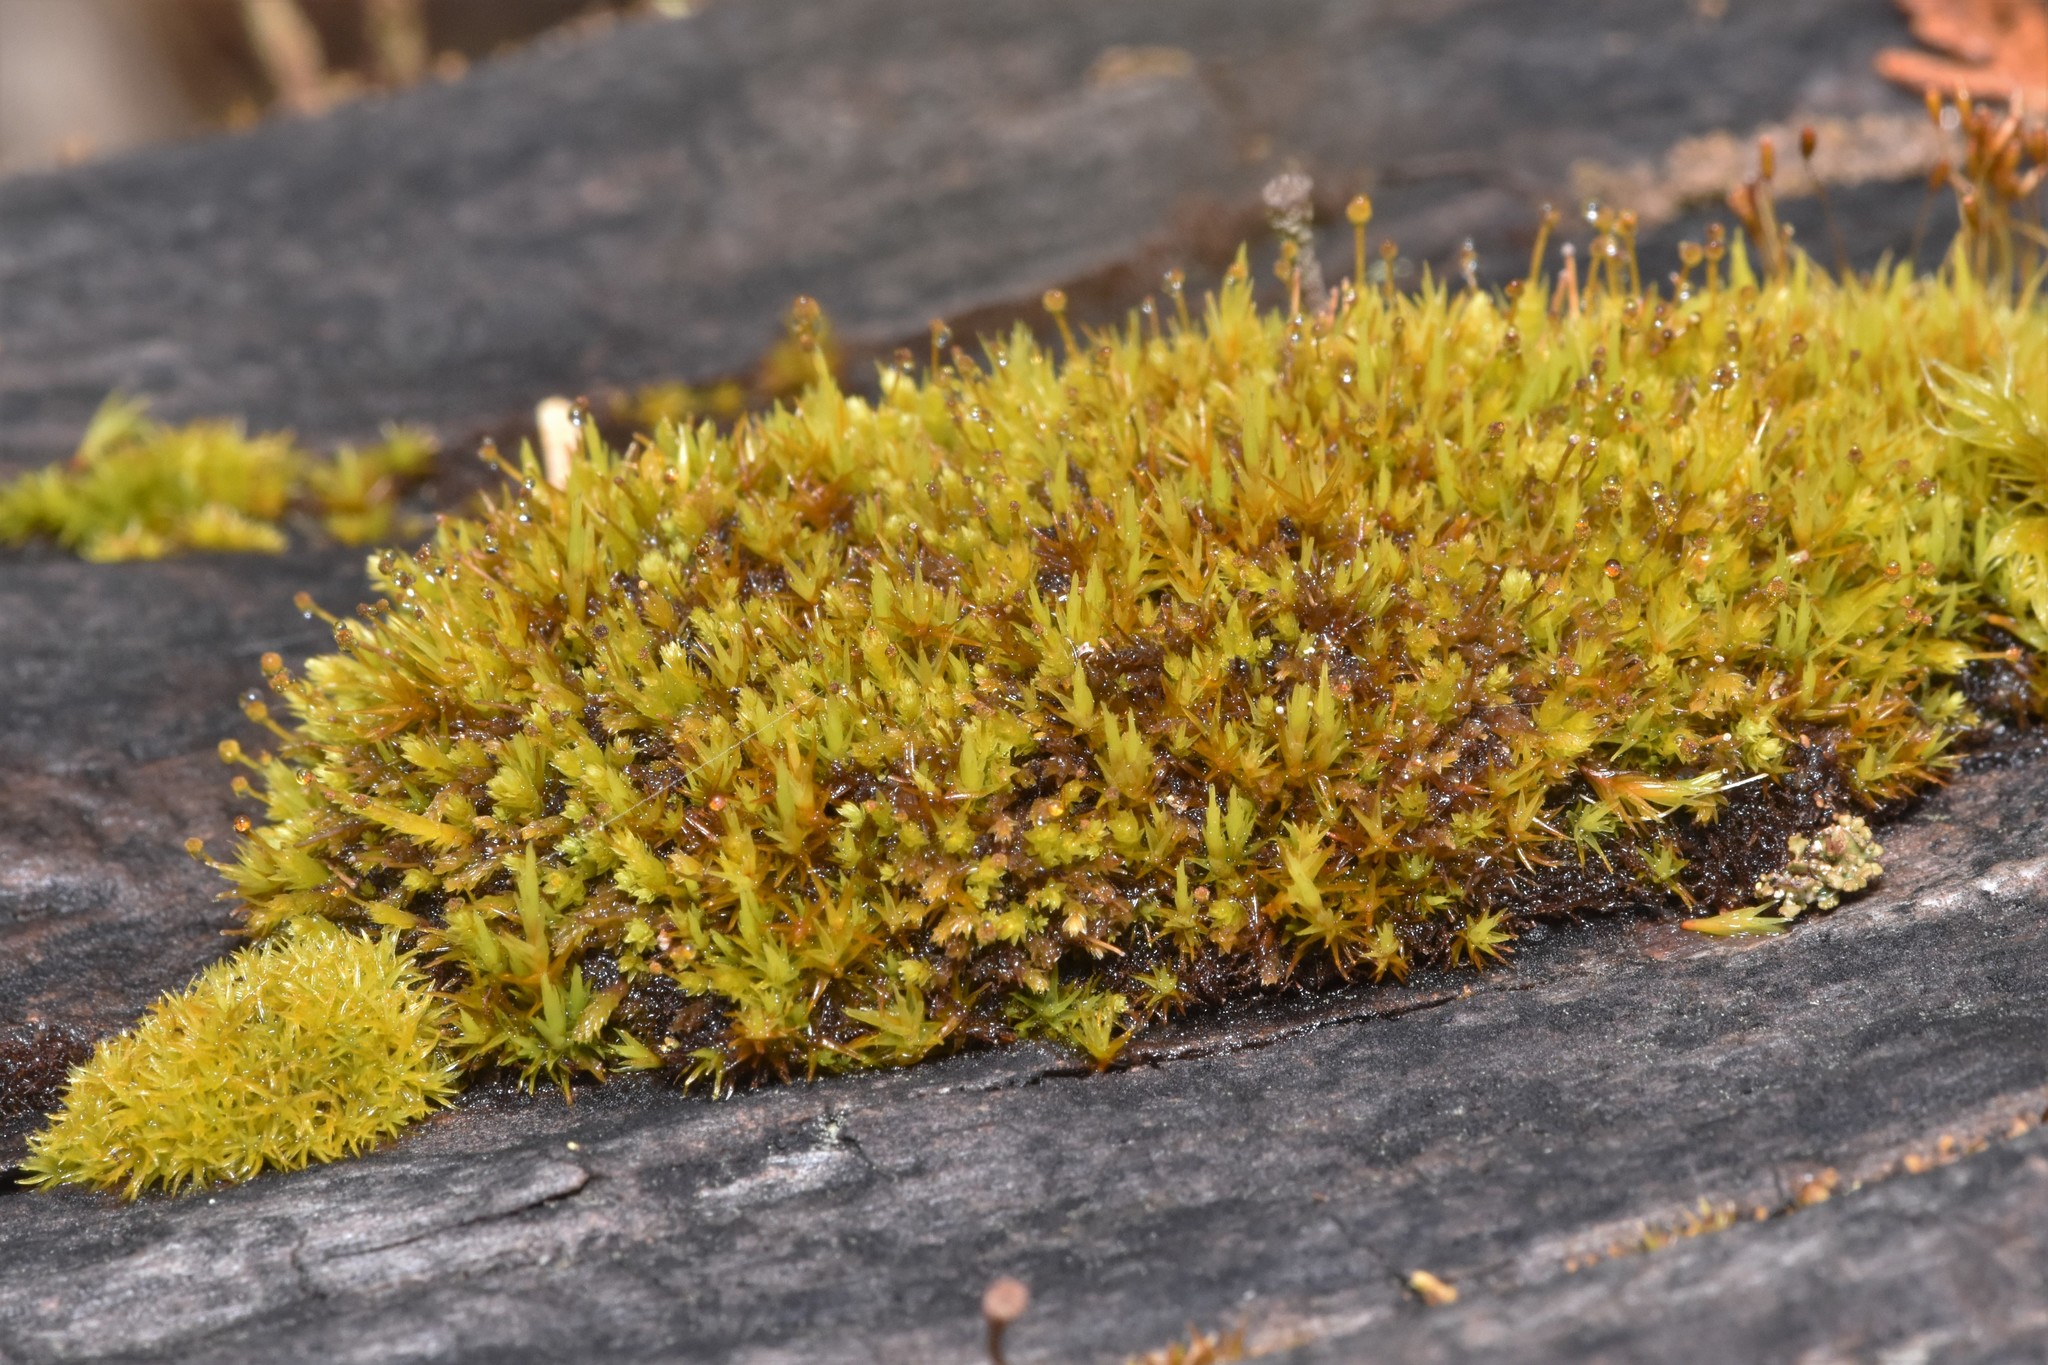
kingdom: Plantae
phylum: Bryophyta
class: Bryopsida
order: Aulacomniales
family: Aulacomniaceae
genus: Aulacomnium
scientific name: Aulacomnium androgynum
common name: Little groove moss
